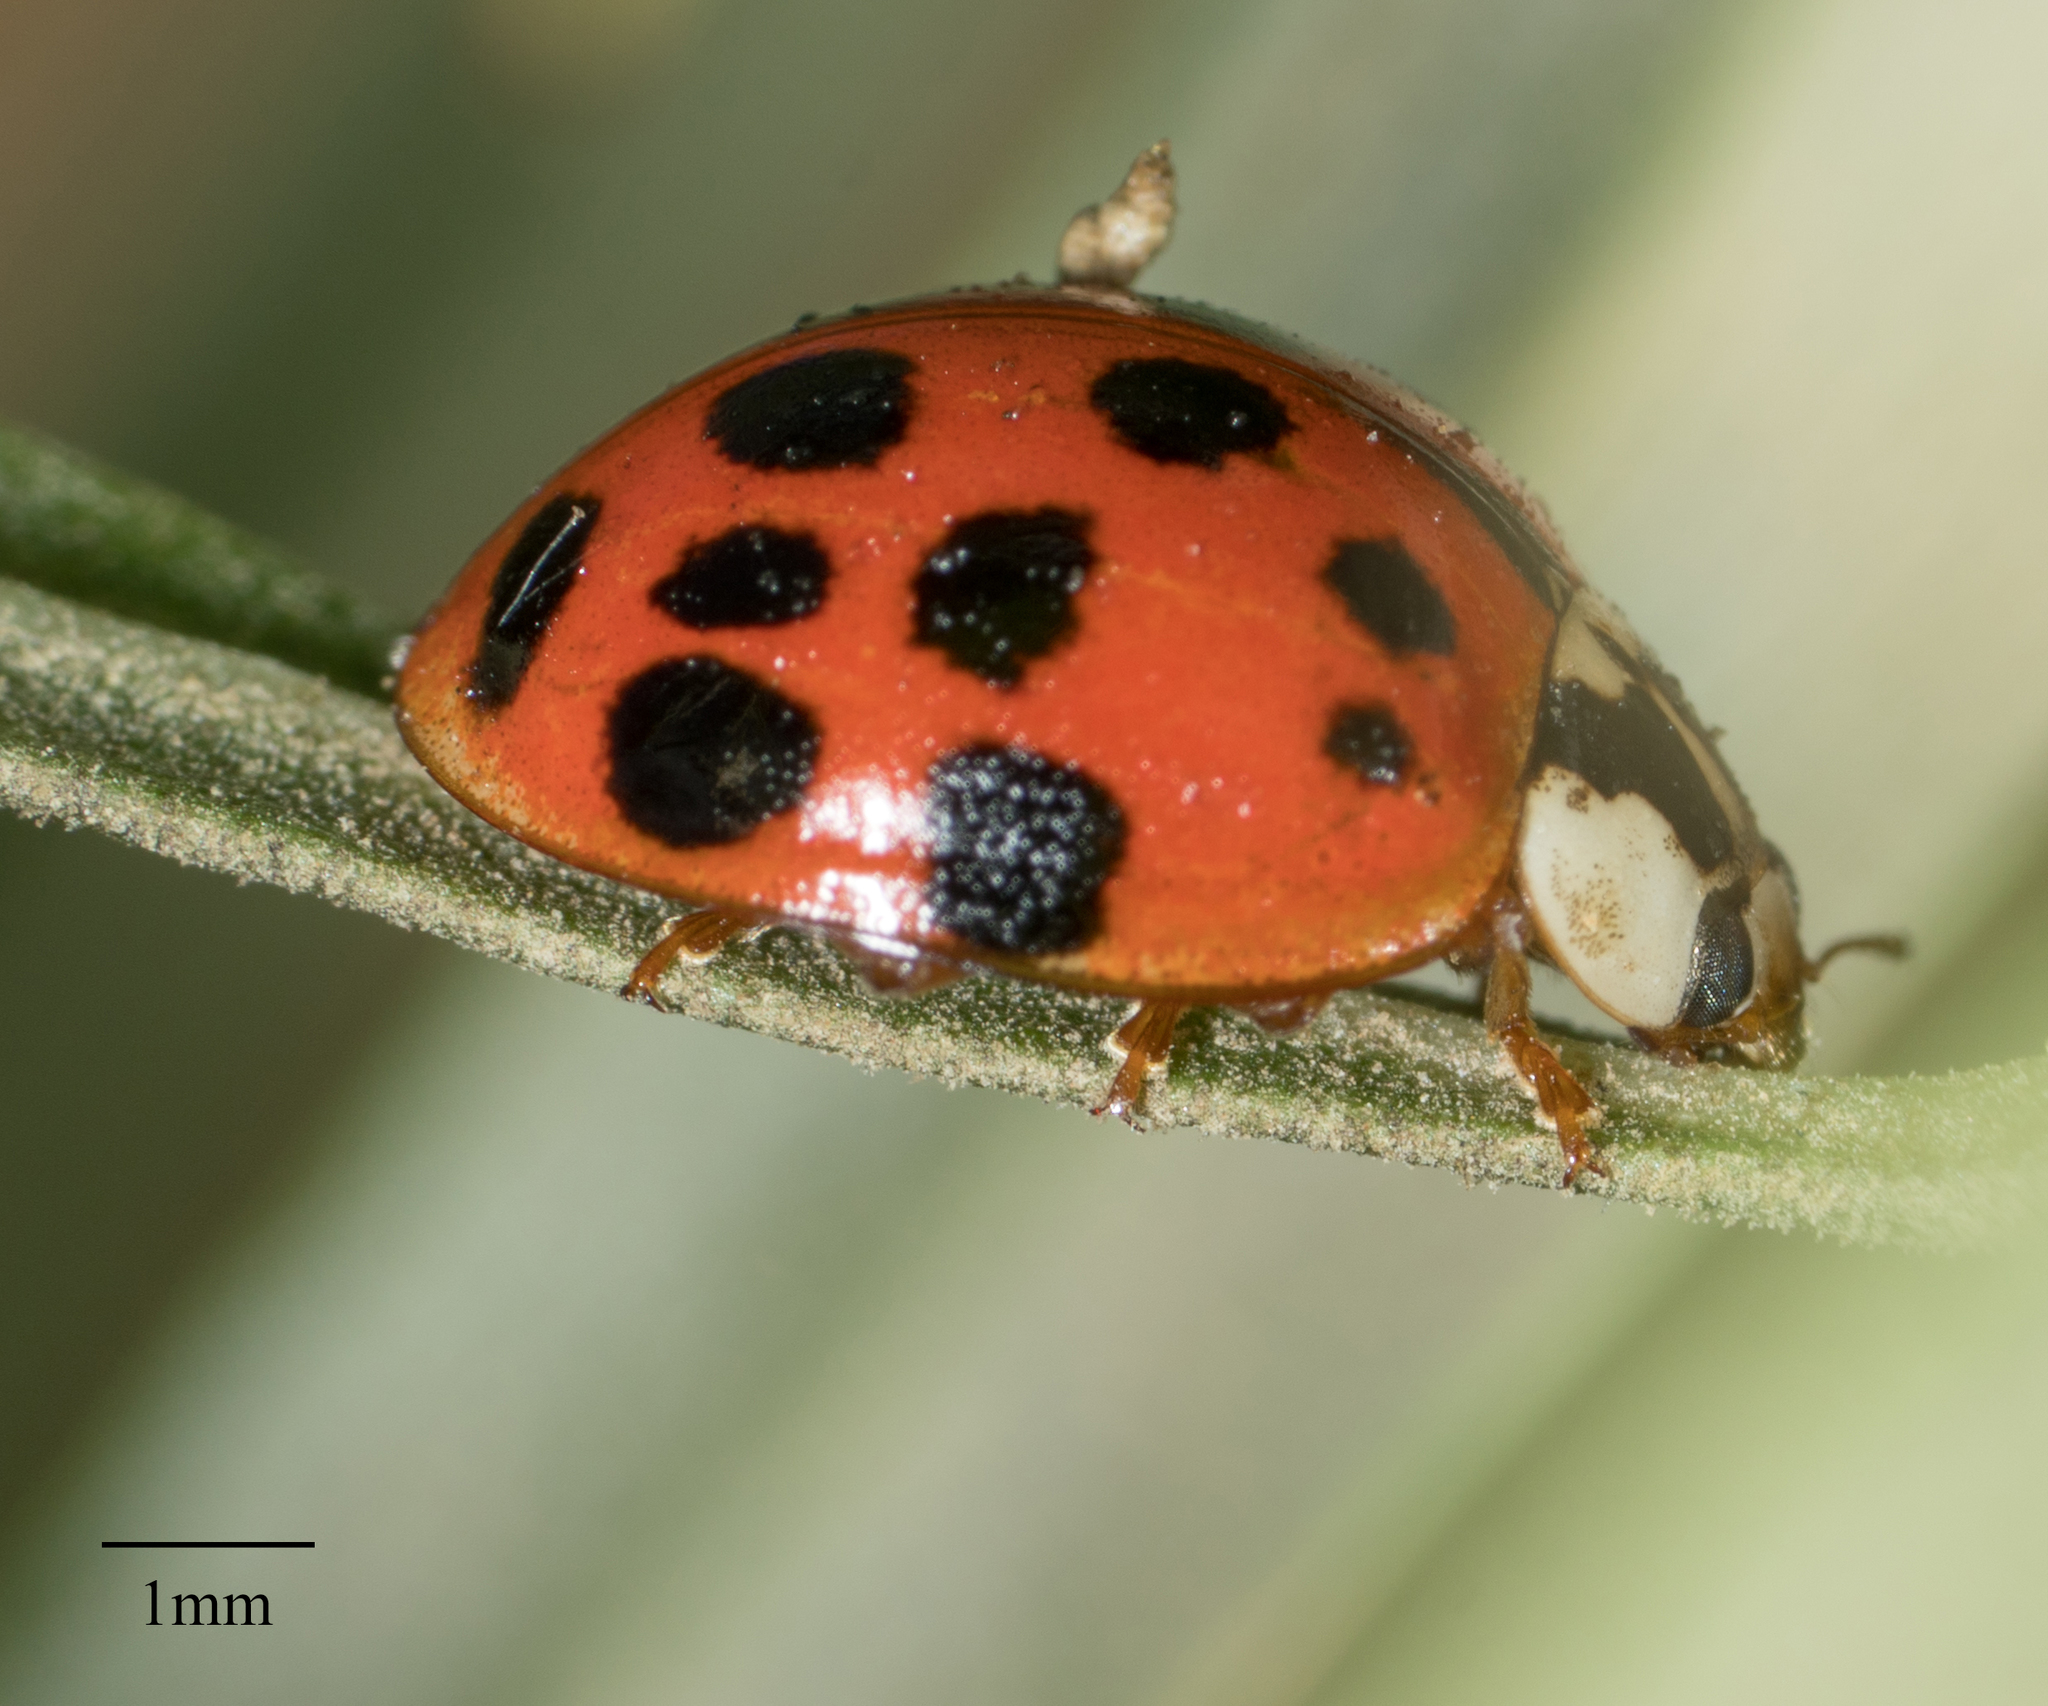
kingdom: Animalia
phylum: Arthropoda
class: Insecta
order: Coleoptera
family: Coccinellidae
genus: Harmonia
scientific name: Harmonia axyridis
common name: Harlequin ladybird
